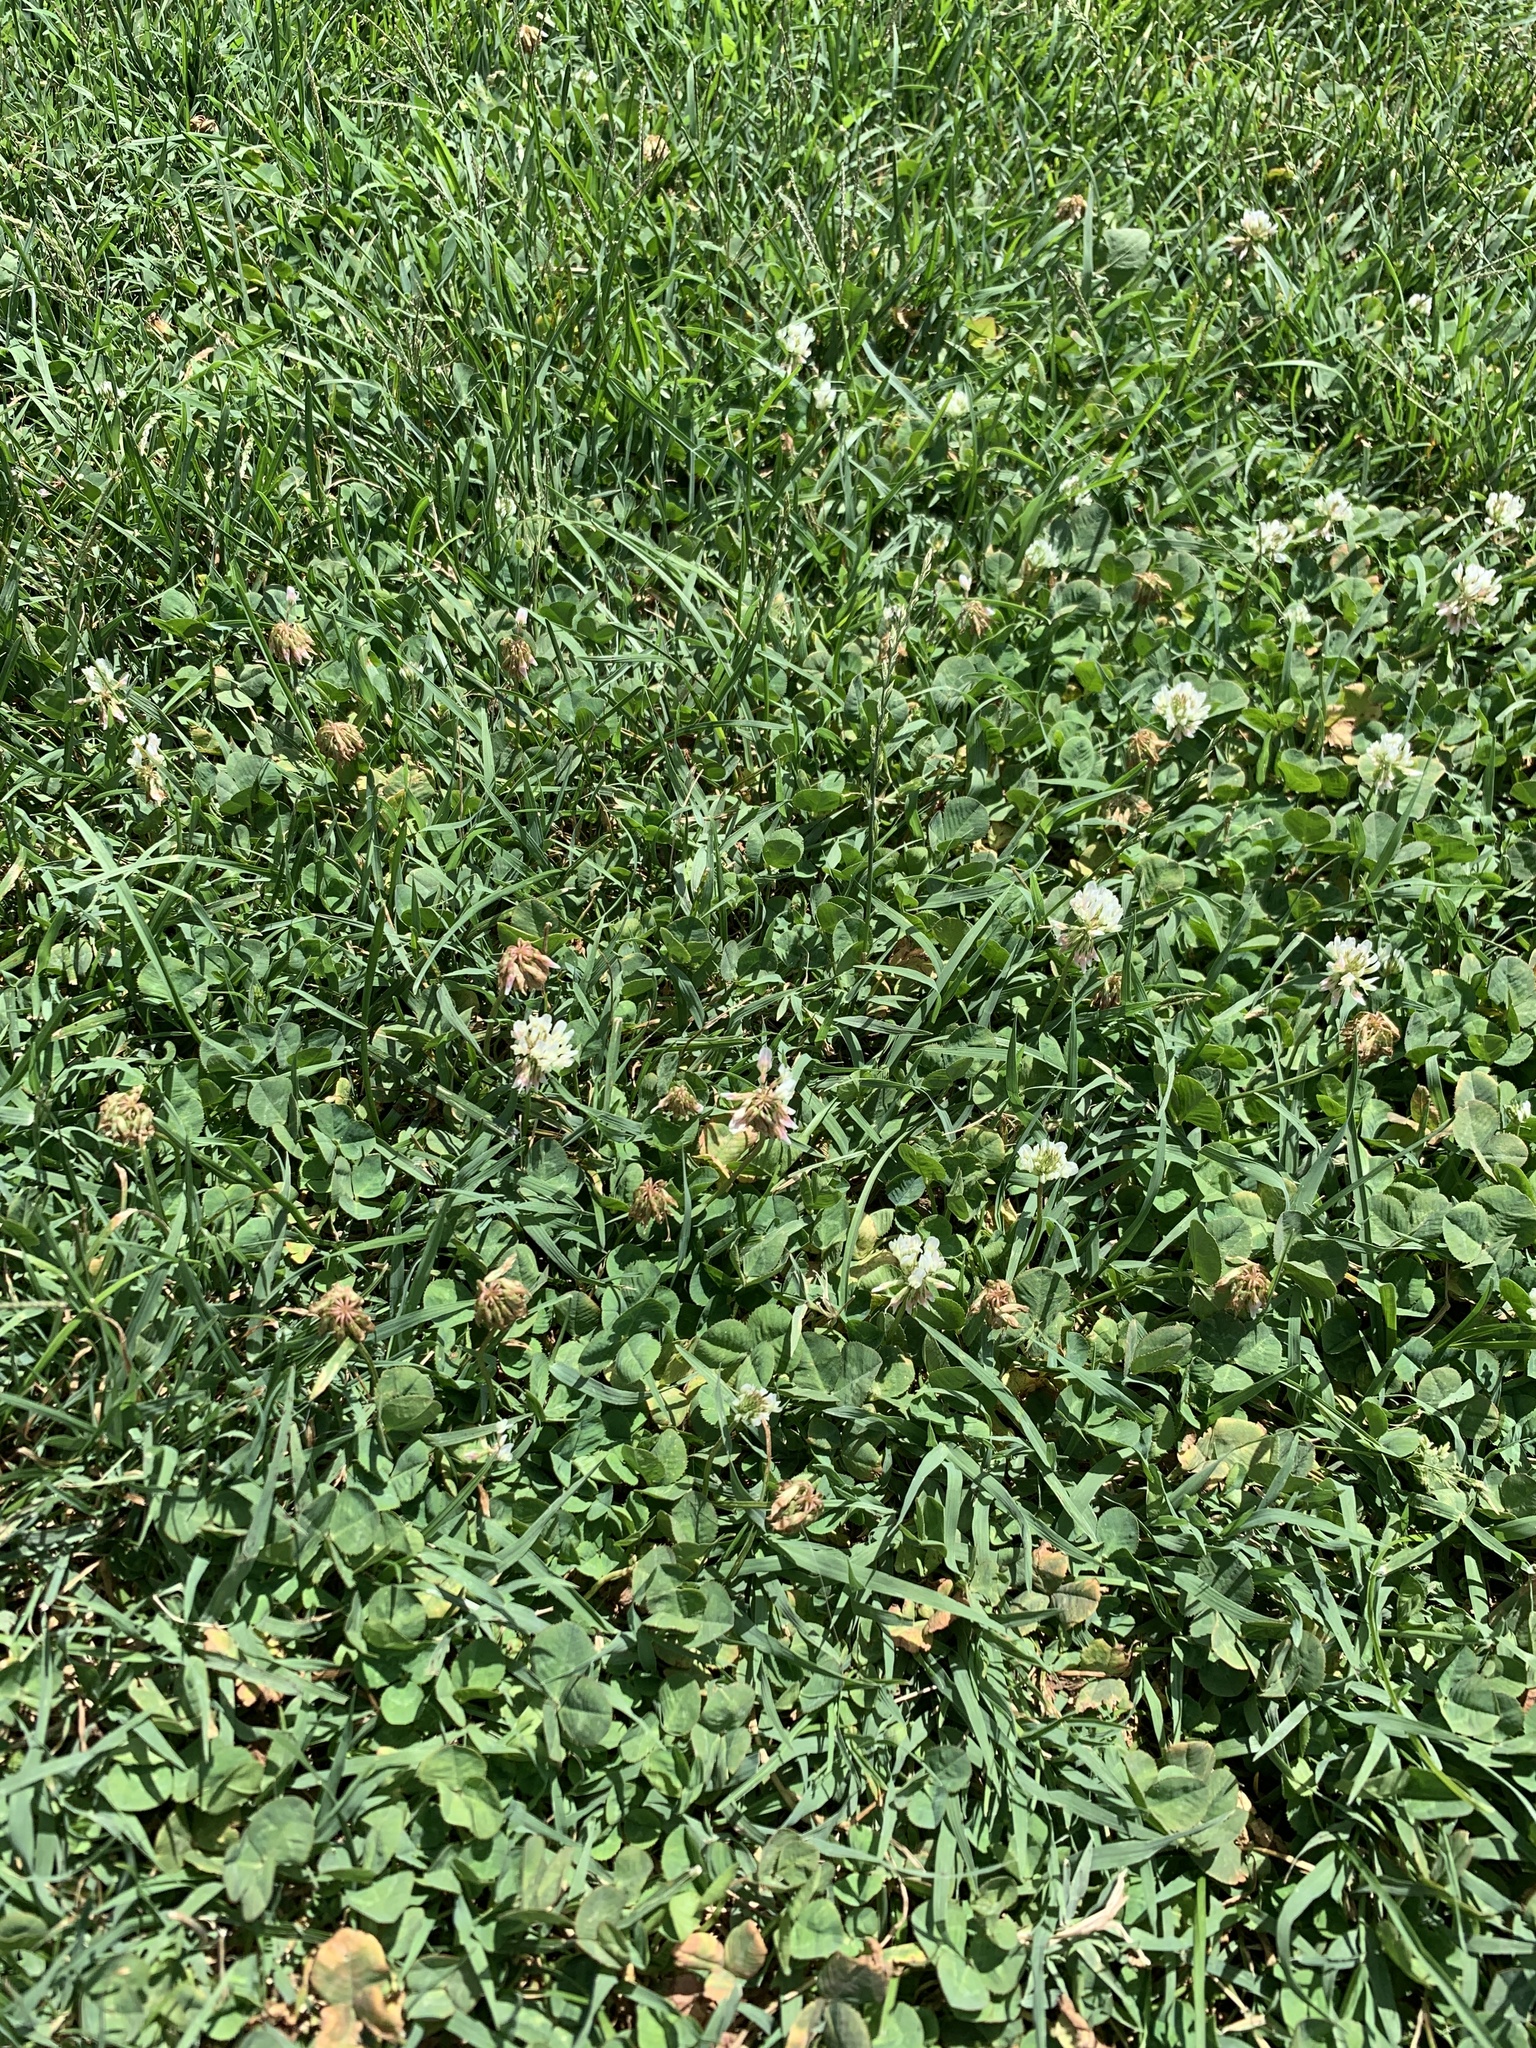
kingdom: Plantae
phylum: Tracheophyta
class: Magnoliopsida
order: Fabales
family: Fabaceae
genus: Trifolium
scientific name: Trifolium repens
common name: White clover
